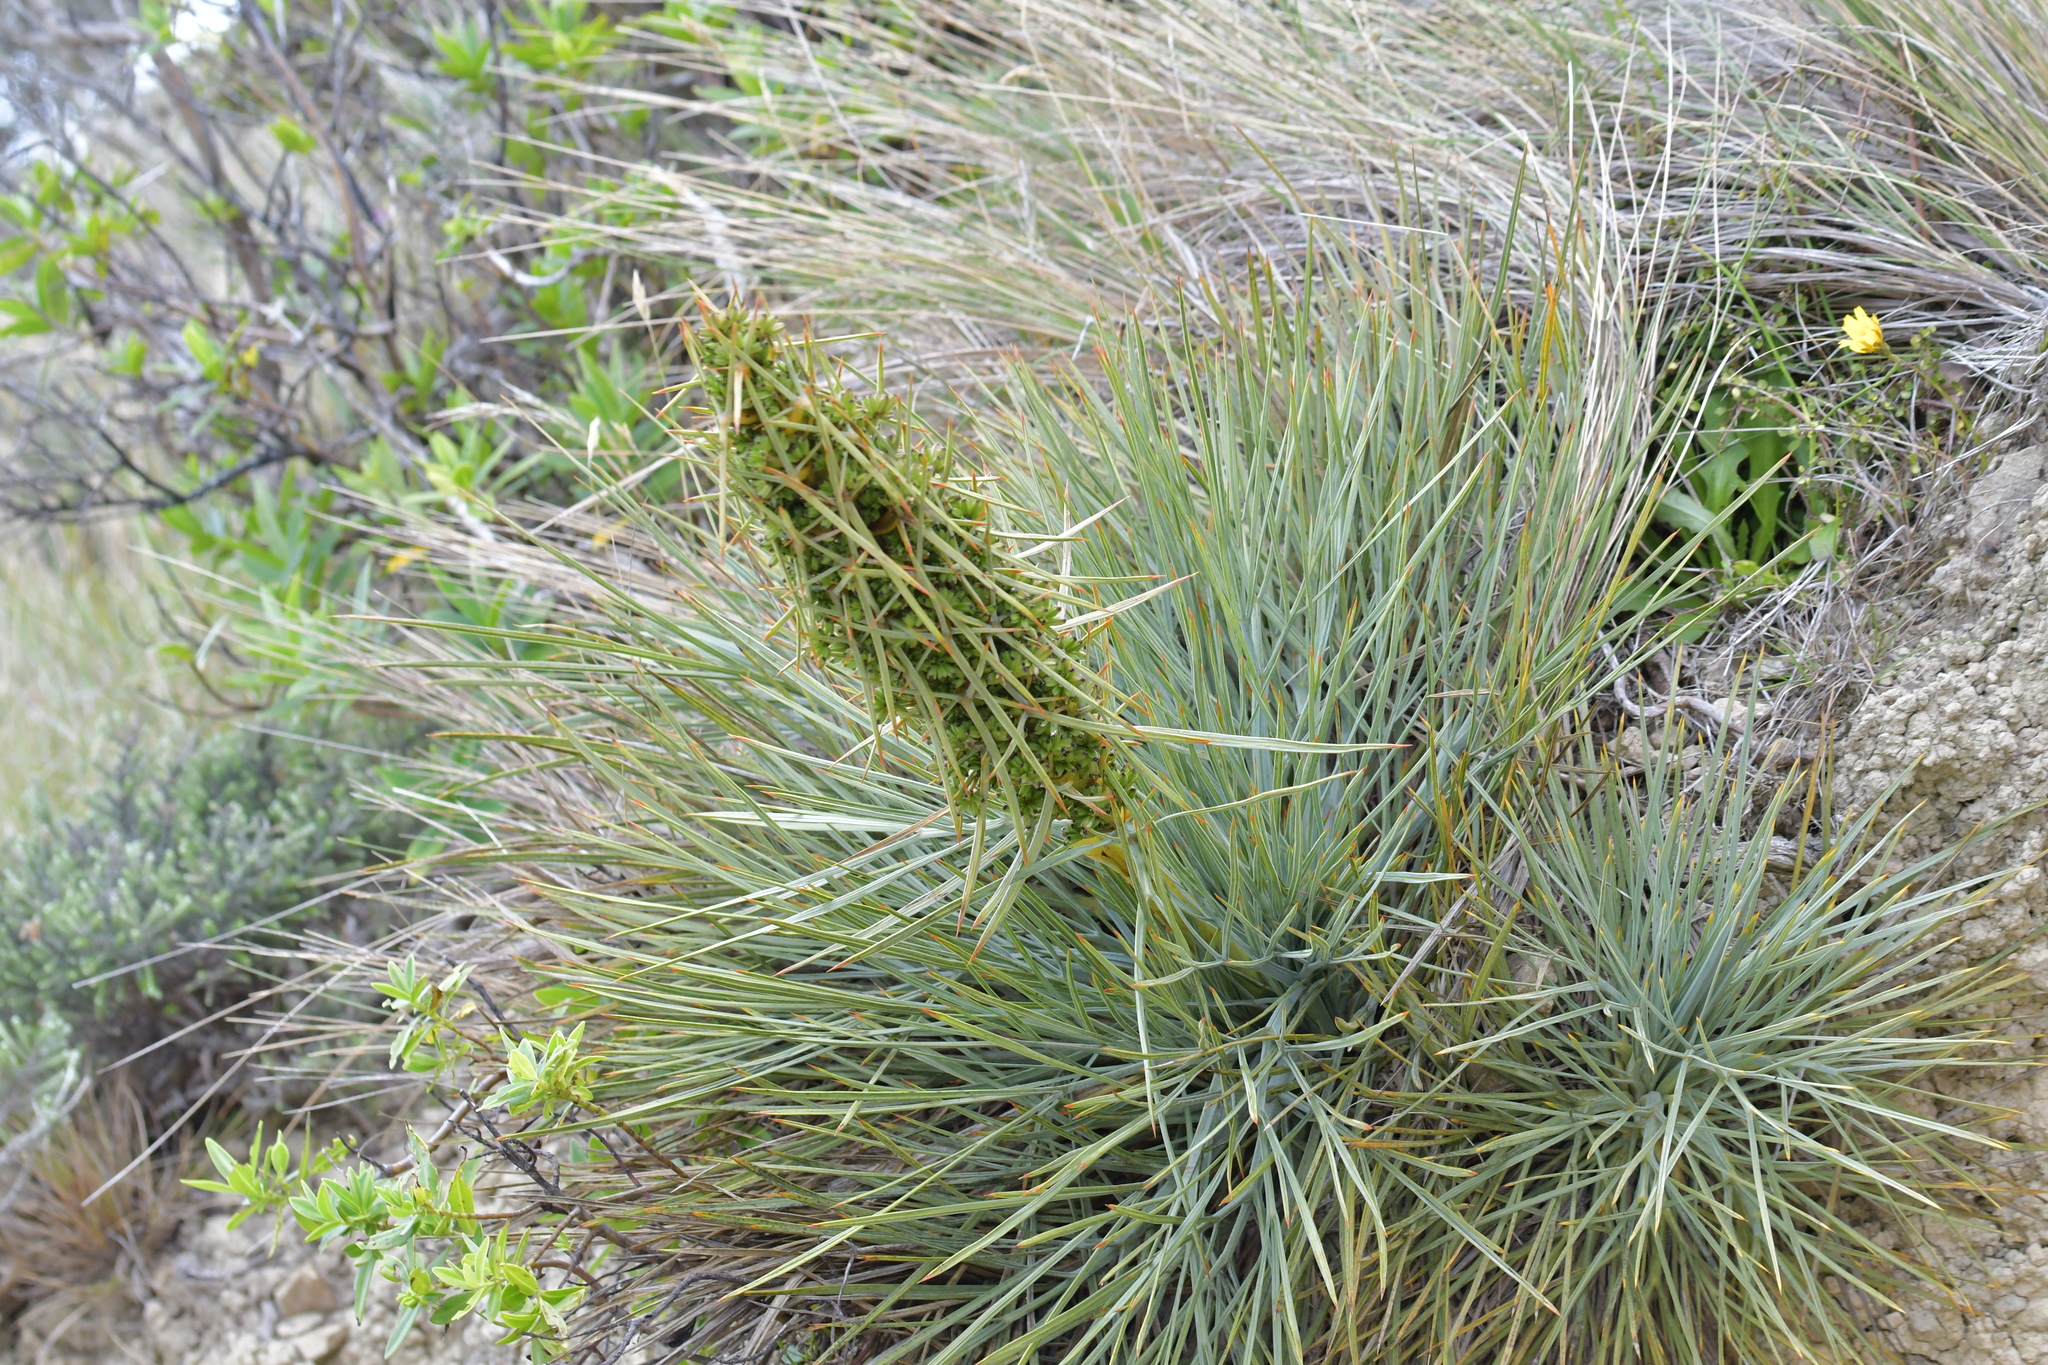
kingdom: Plantae
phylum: Tracheophyta
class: Magnoliopsida
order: Apiales
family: Apiaceae
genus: Aciphylla
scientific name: Aciphylla squarrosa
